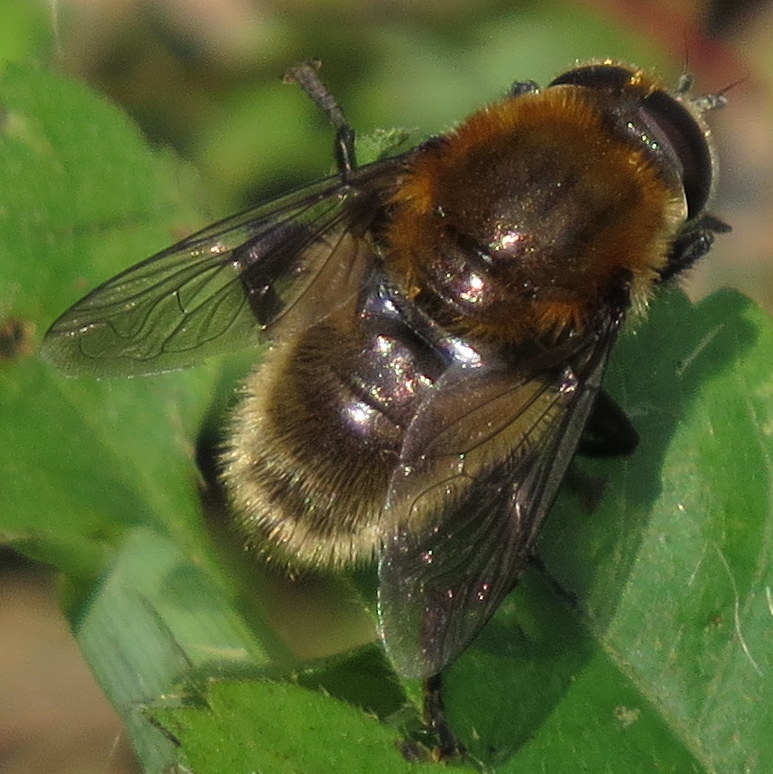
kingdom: Animalia
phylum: Arthropoda
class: Insecta
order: Diptera
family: Syrphidae
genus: Merodon
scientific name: Merodon equestris
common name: Greater bulb-fly
